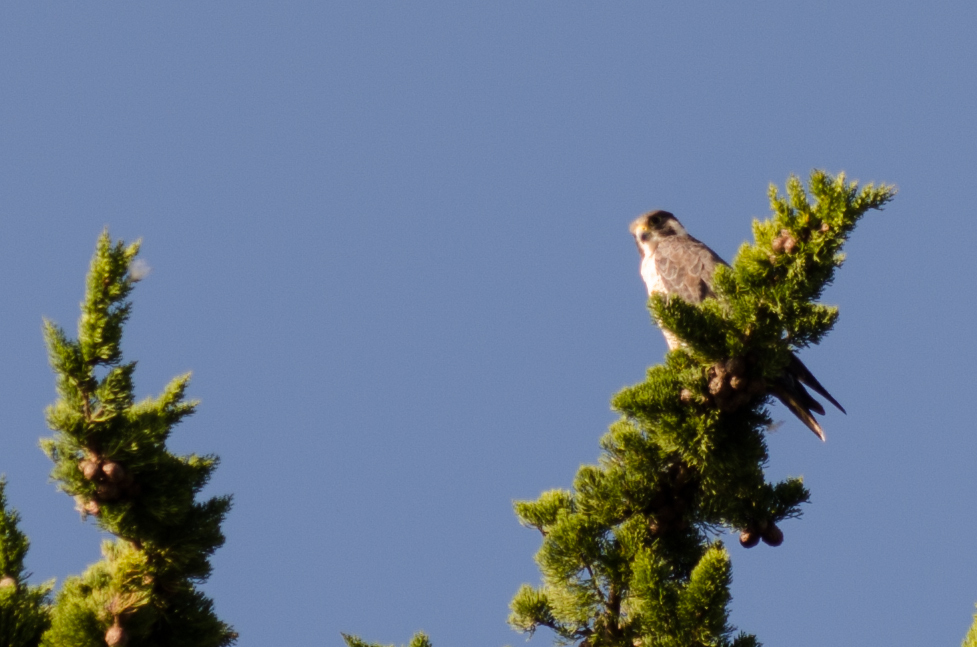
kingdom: Animalia
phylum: Chordata
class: Aves
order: Falconiformes
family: Falconidae
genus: Falco
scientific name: Falco peregrinus
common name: Peregrine falcon
